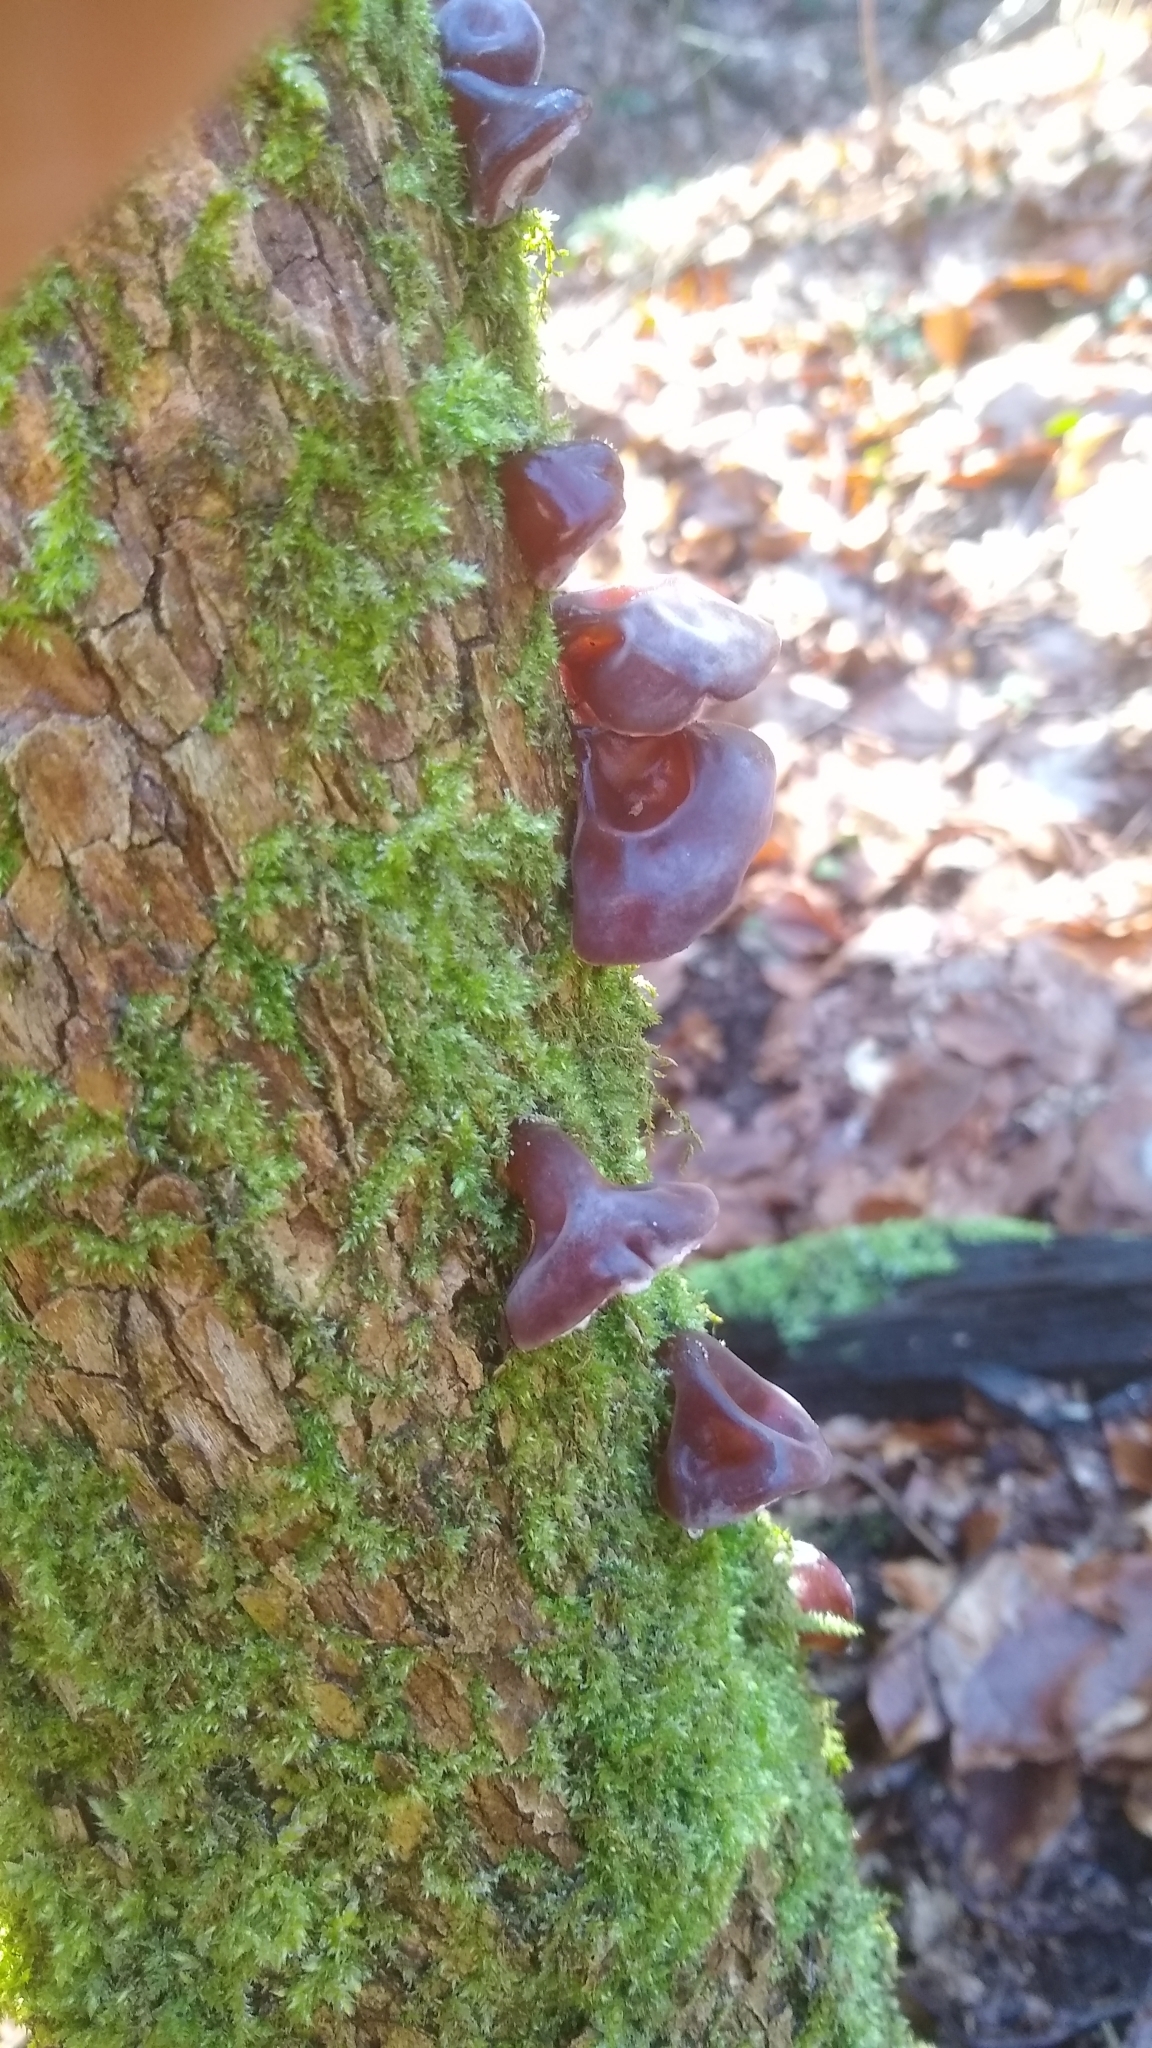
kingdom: Fungi
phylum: Basidiomycota
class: Agaricomycetes
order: Auriculariales
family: Auriculariaceae
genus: Auricularia
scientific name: Auricularia auricula-judae
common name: Jelly ear
